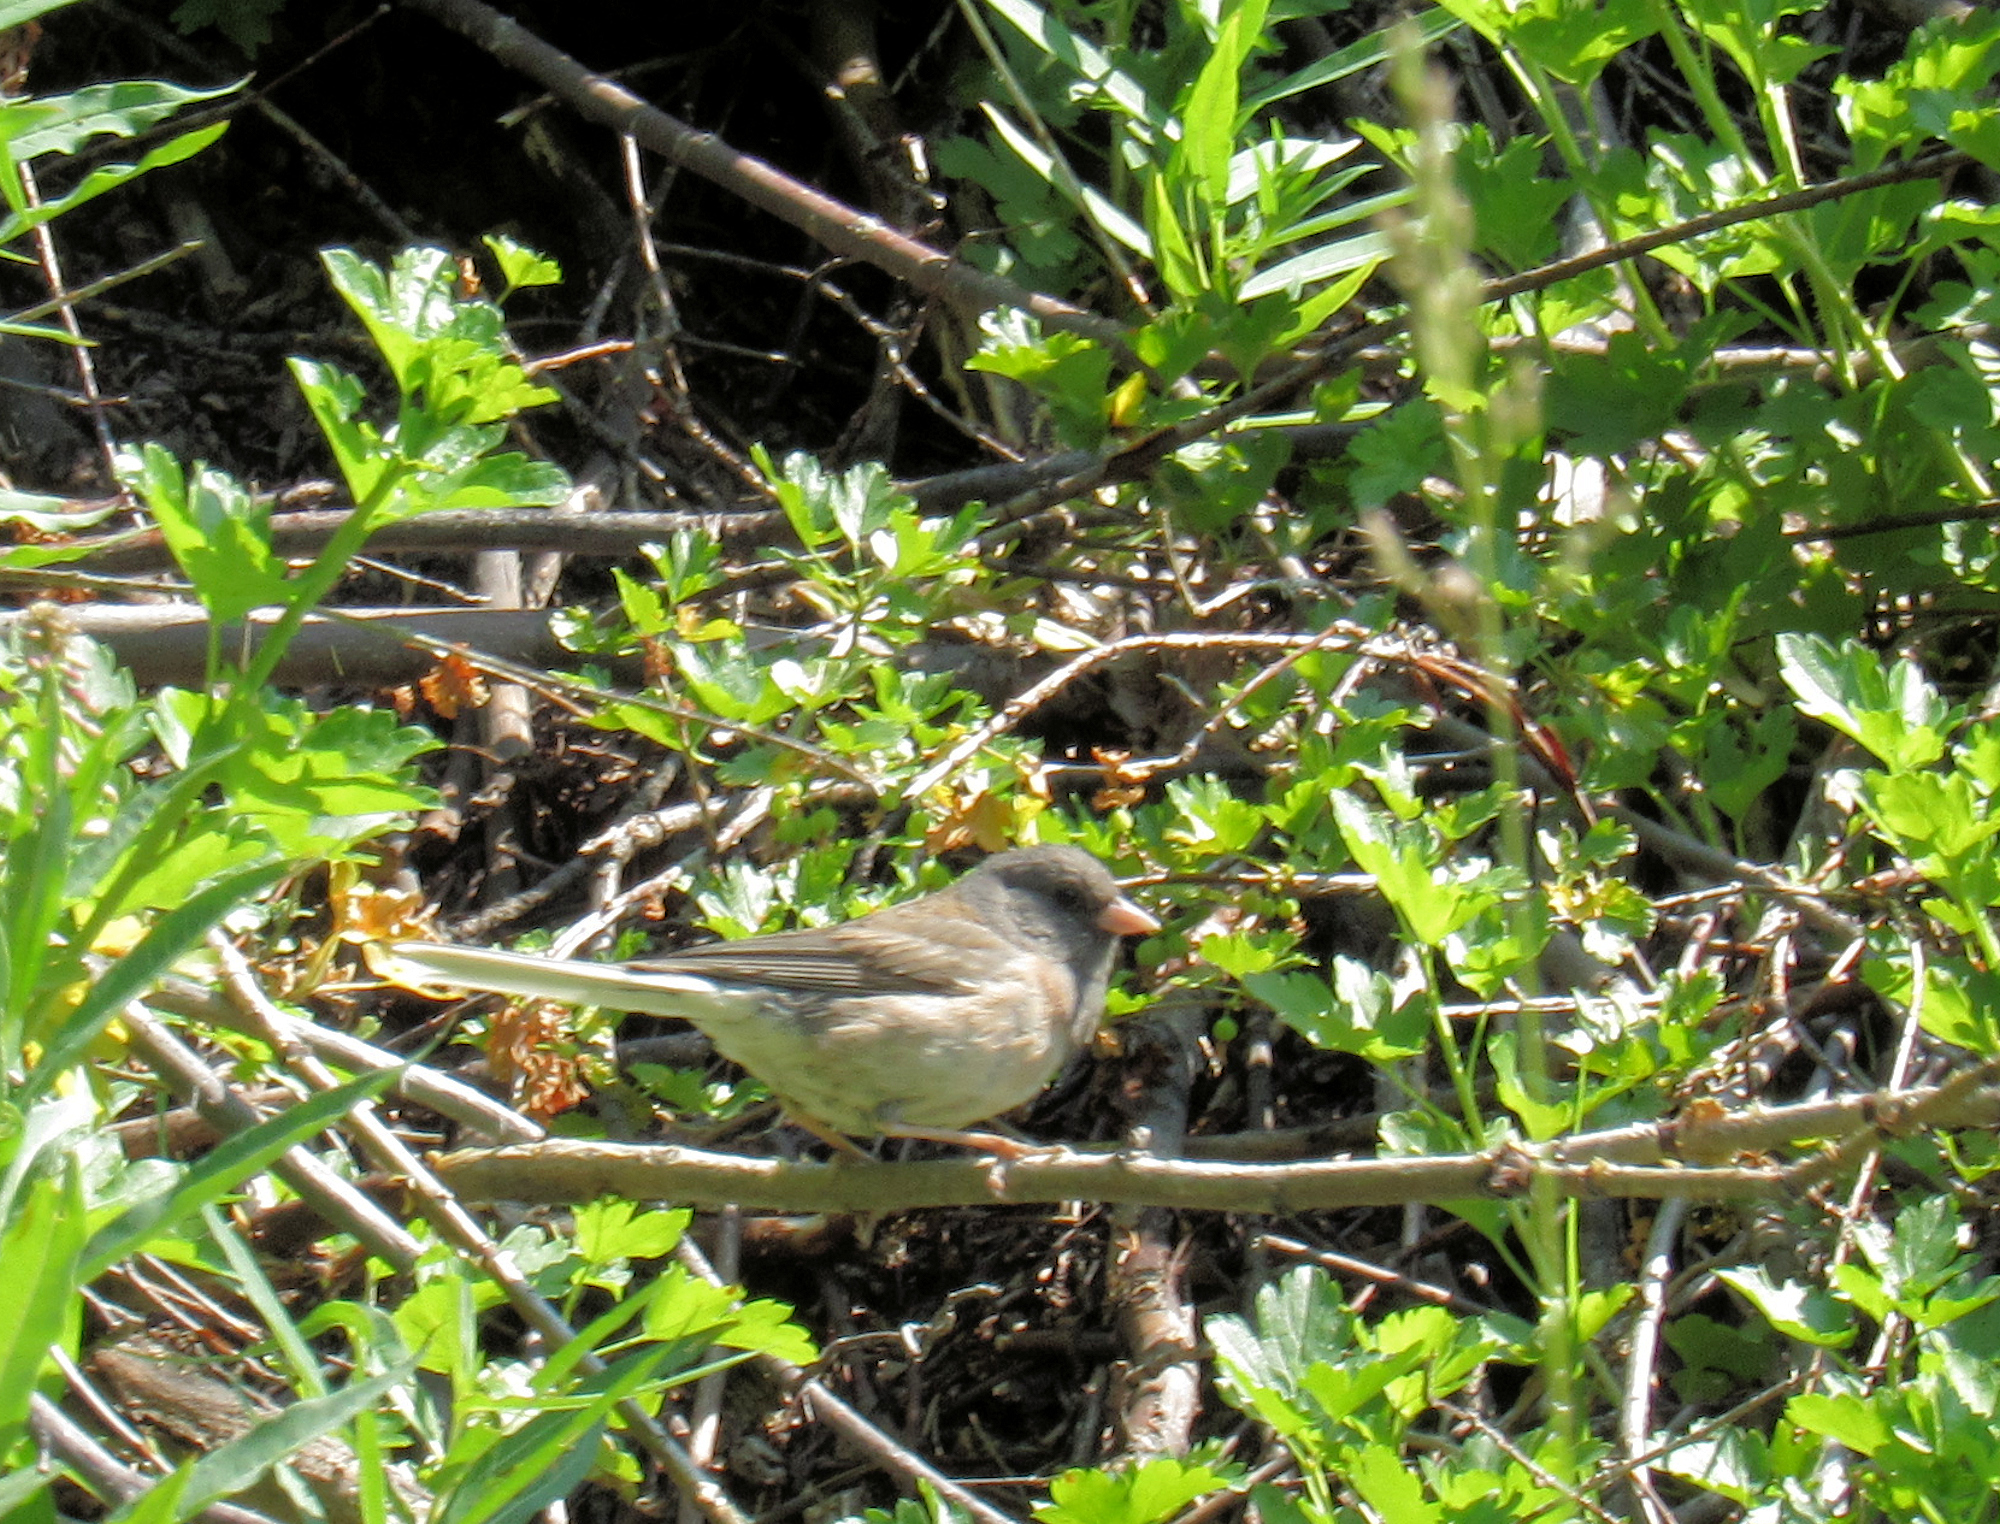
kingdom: Animalia
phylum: Chordata
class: Aves
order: Passeriformes
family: Passerellidae
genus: Junco
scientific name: Junco hyemalis
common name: Dark-eyed junco
